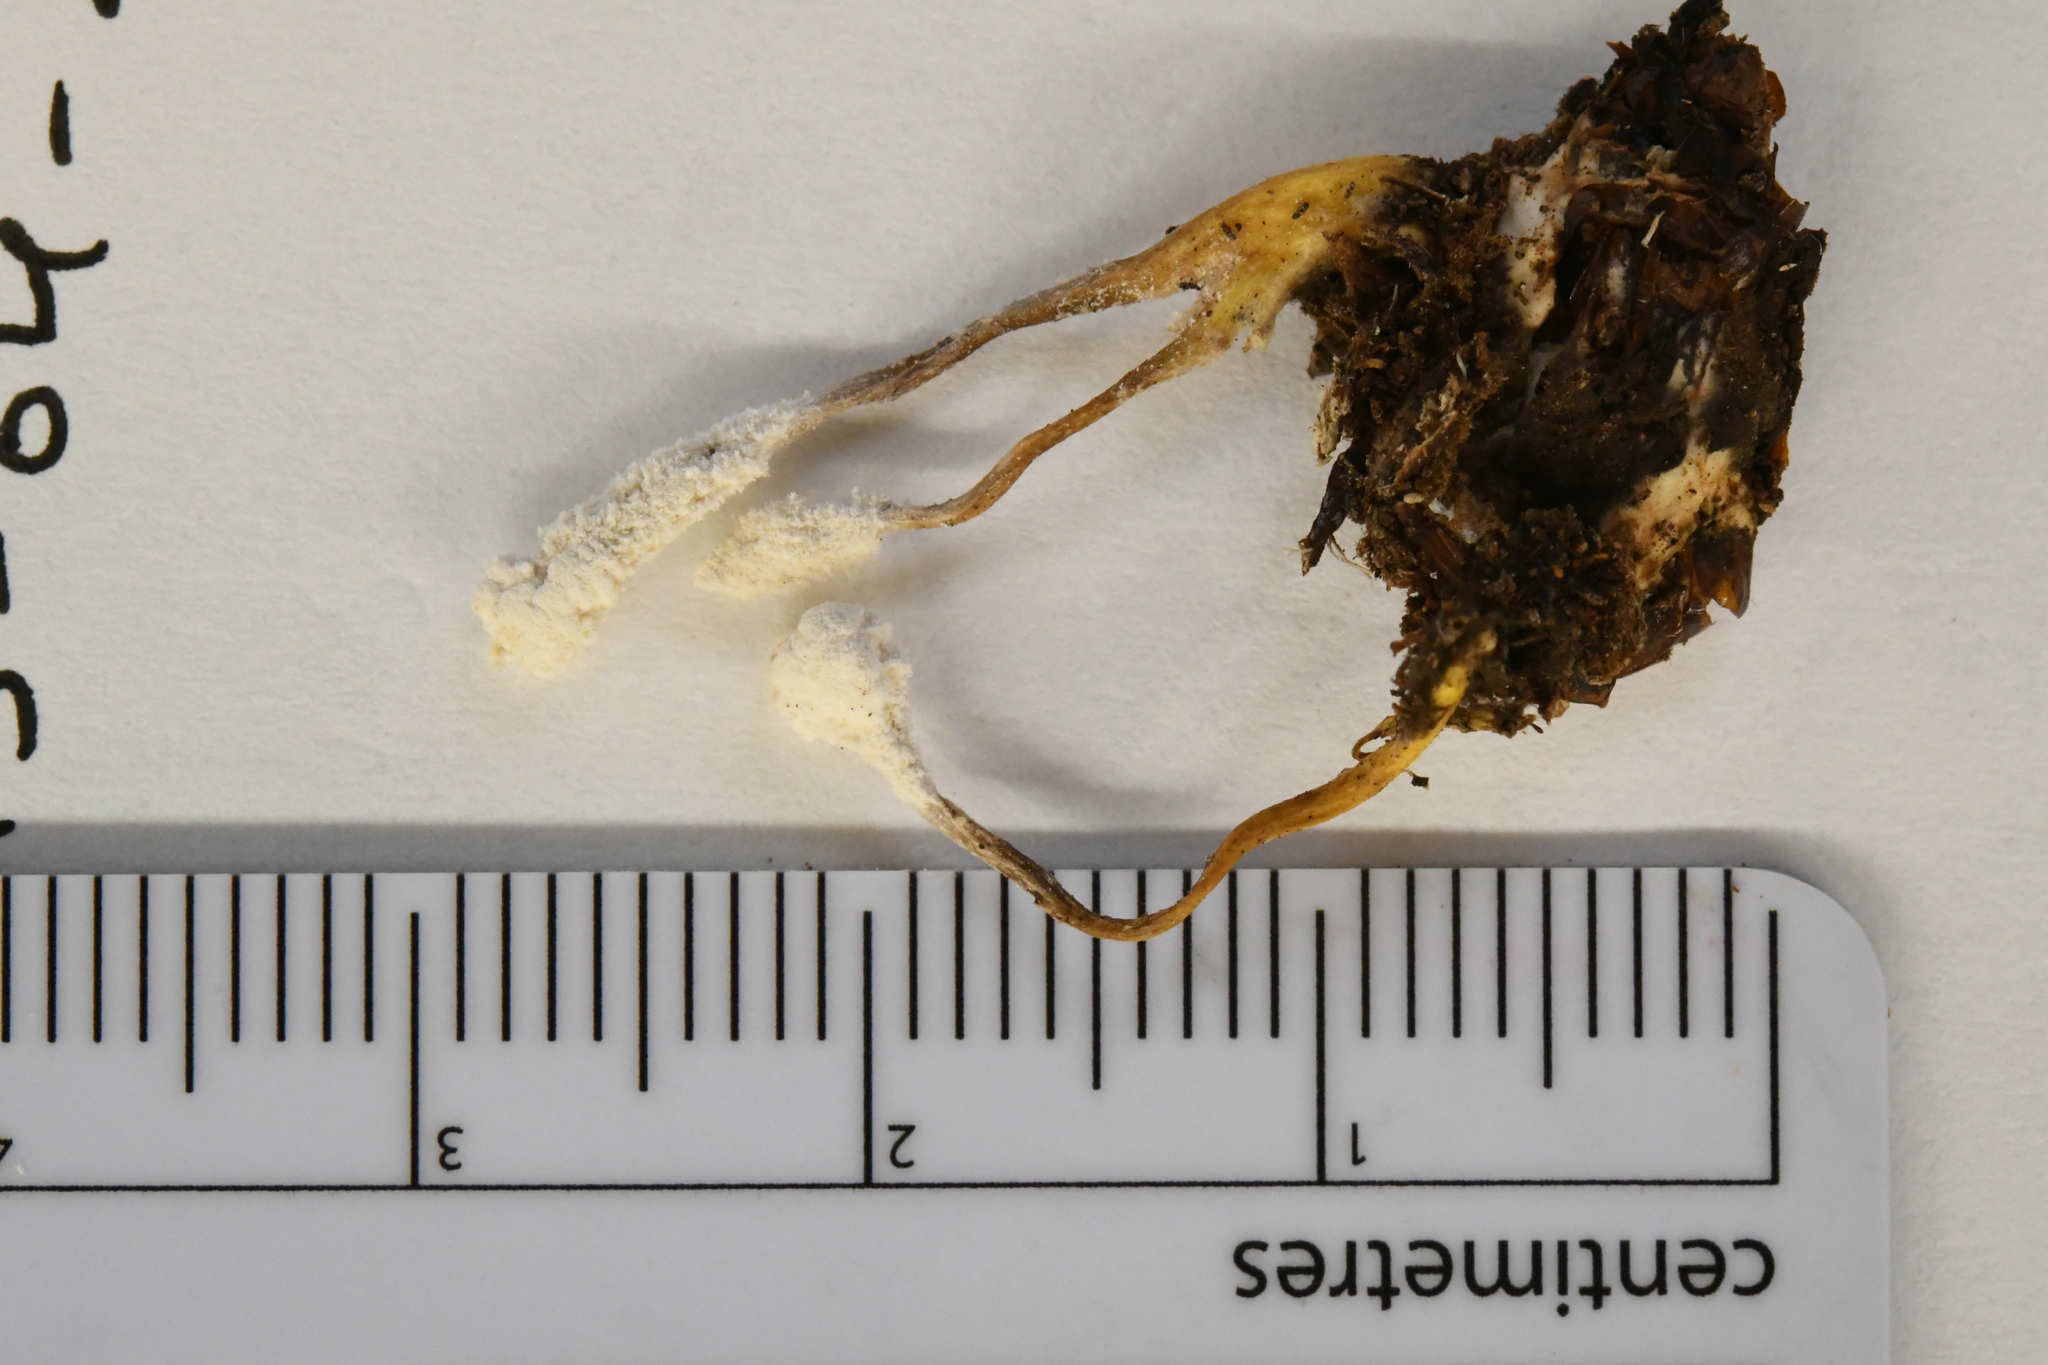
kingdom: Fungi
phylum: Ascomycota
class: Sordariomycetes
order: Hypocreales
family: Cordycipitaceae
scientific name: Cordycipitaceae
